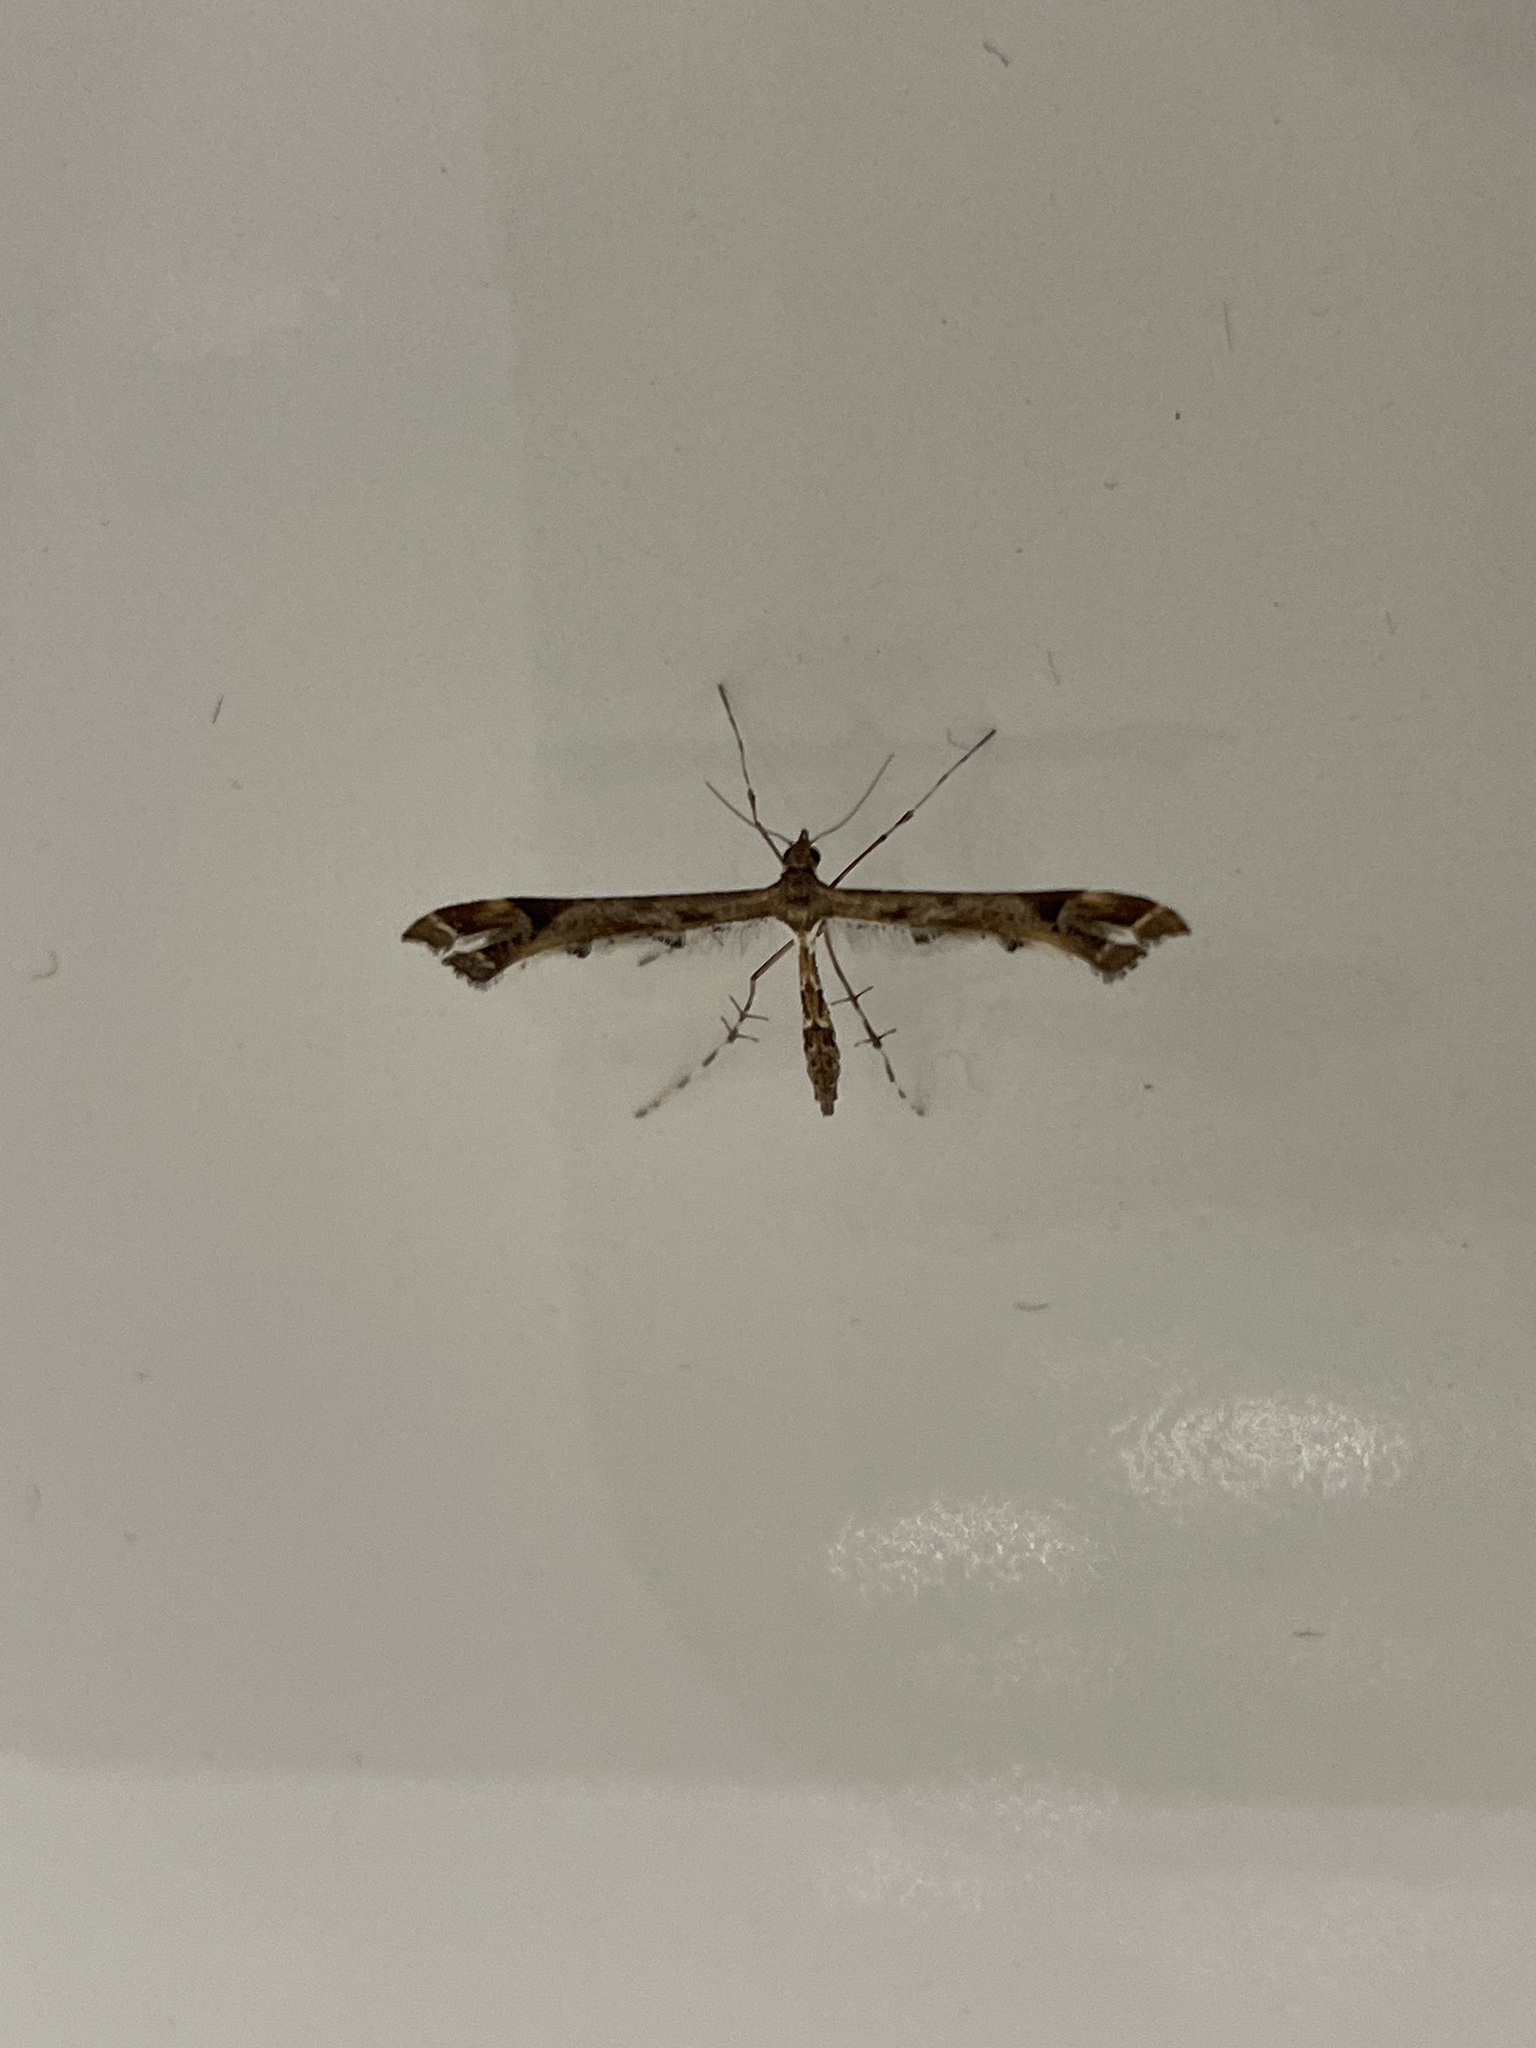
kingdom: Animalia
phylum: Arthropoda
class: Insecta
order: Lepidoptera
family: Pterophoridae
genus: Amblyptilia
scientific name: Amblyptilia acanthadactyla
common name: Beautiful plume
